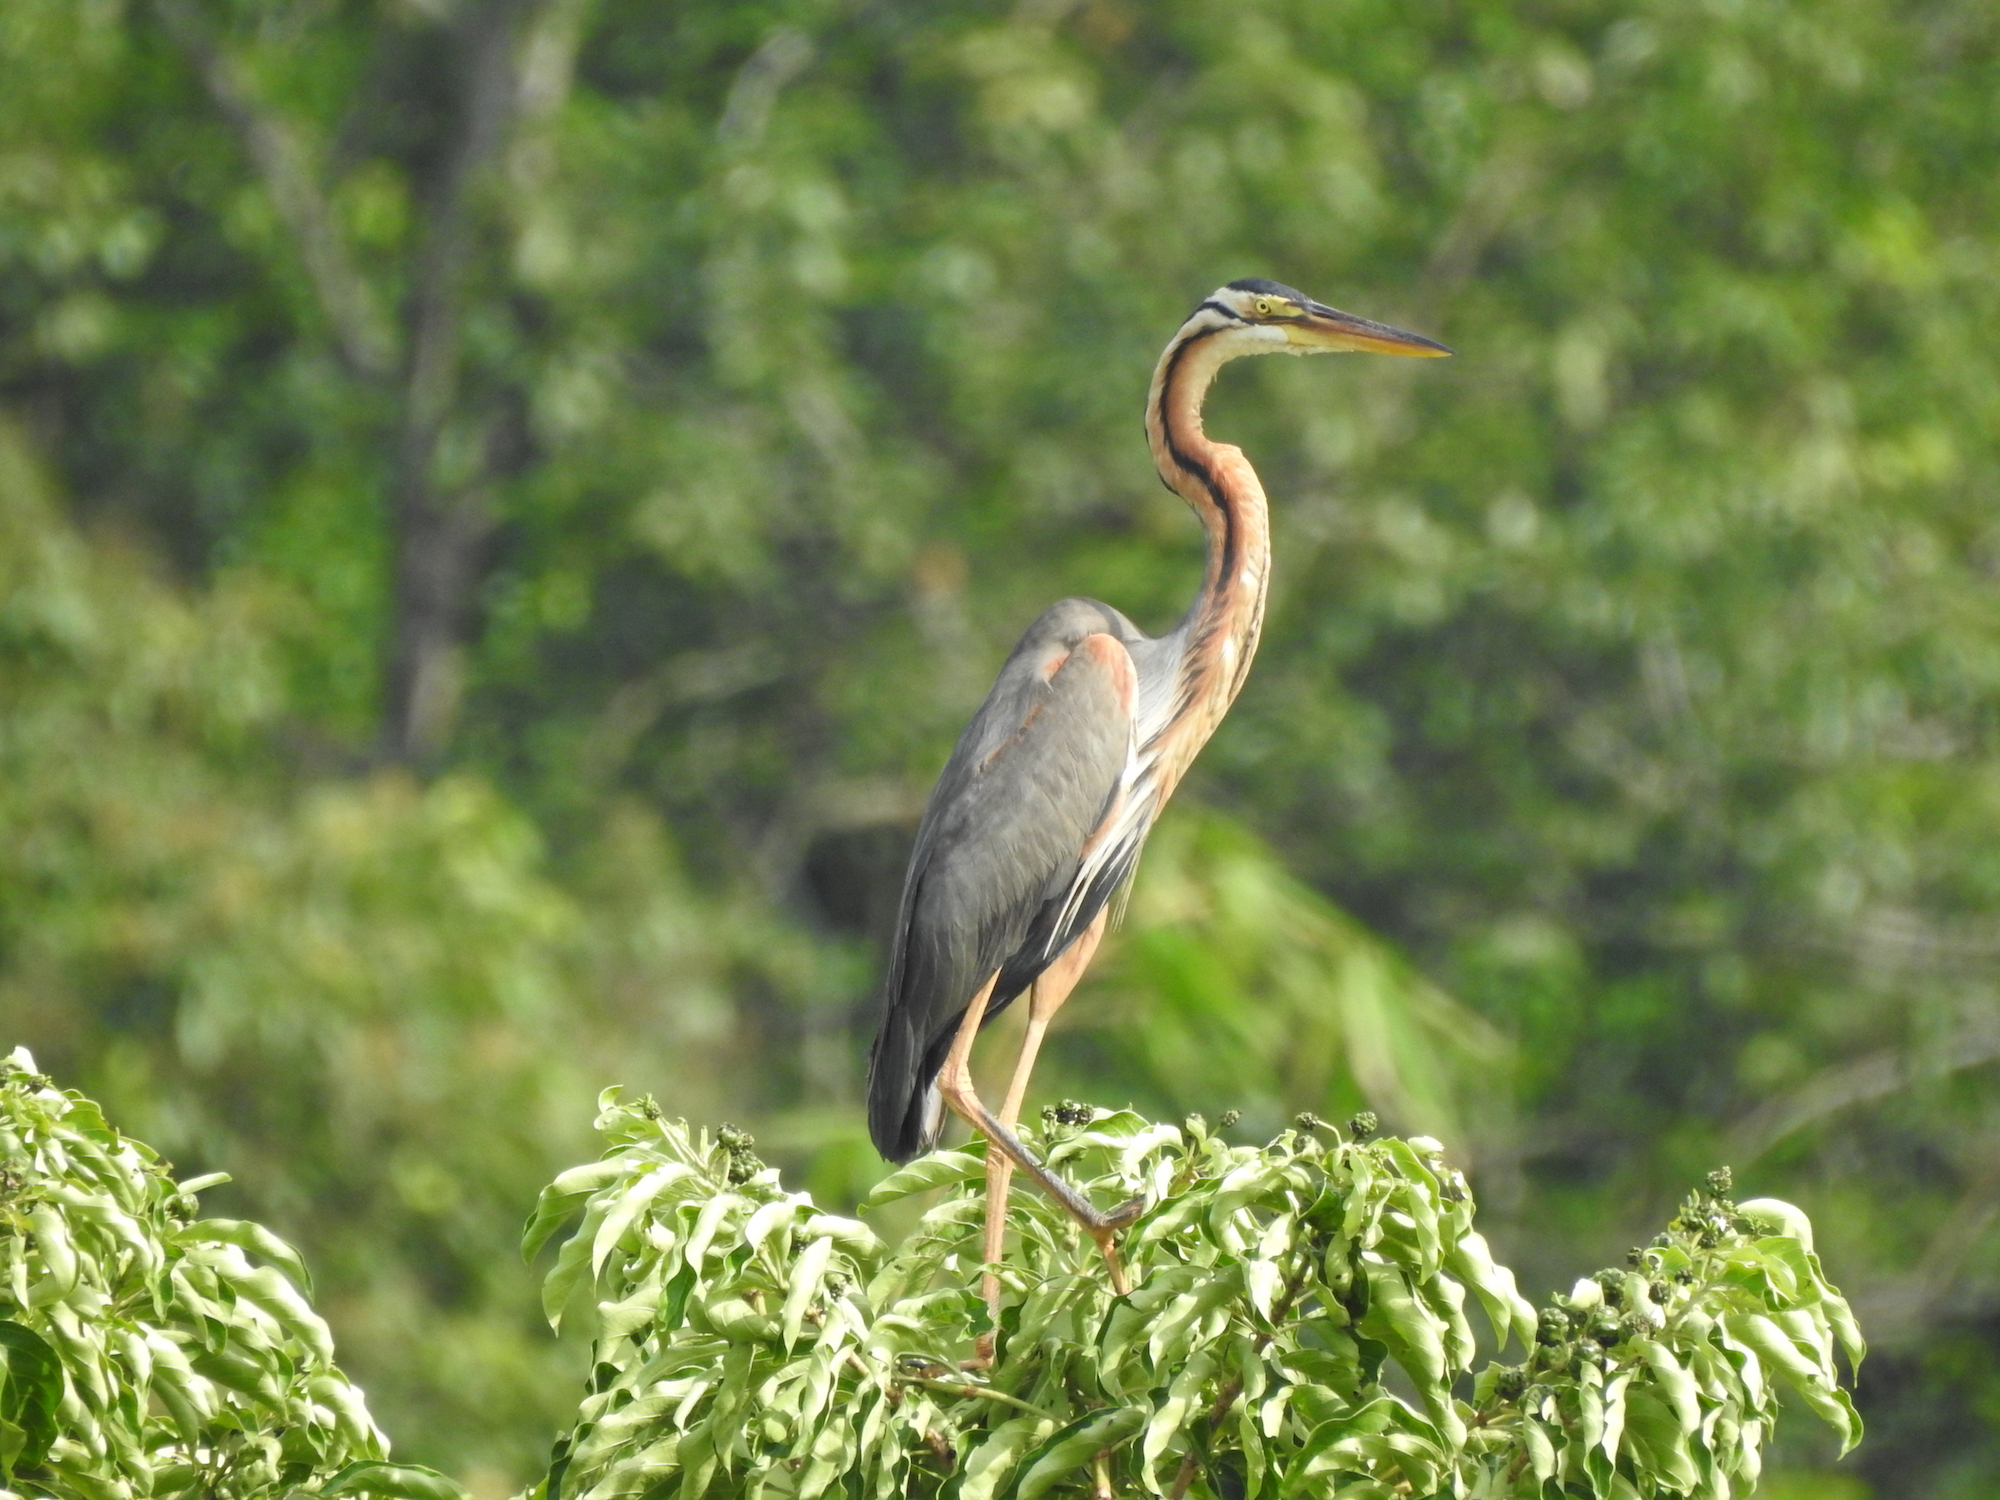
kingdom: Animalia
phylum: Chordata
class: Aves
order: Pelecaniformes
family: Ardeidae
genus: Ardea
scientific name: Ardea purpurea
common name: Purple heron
